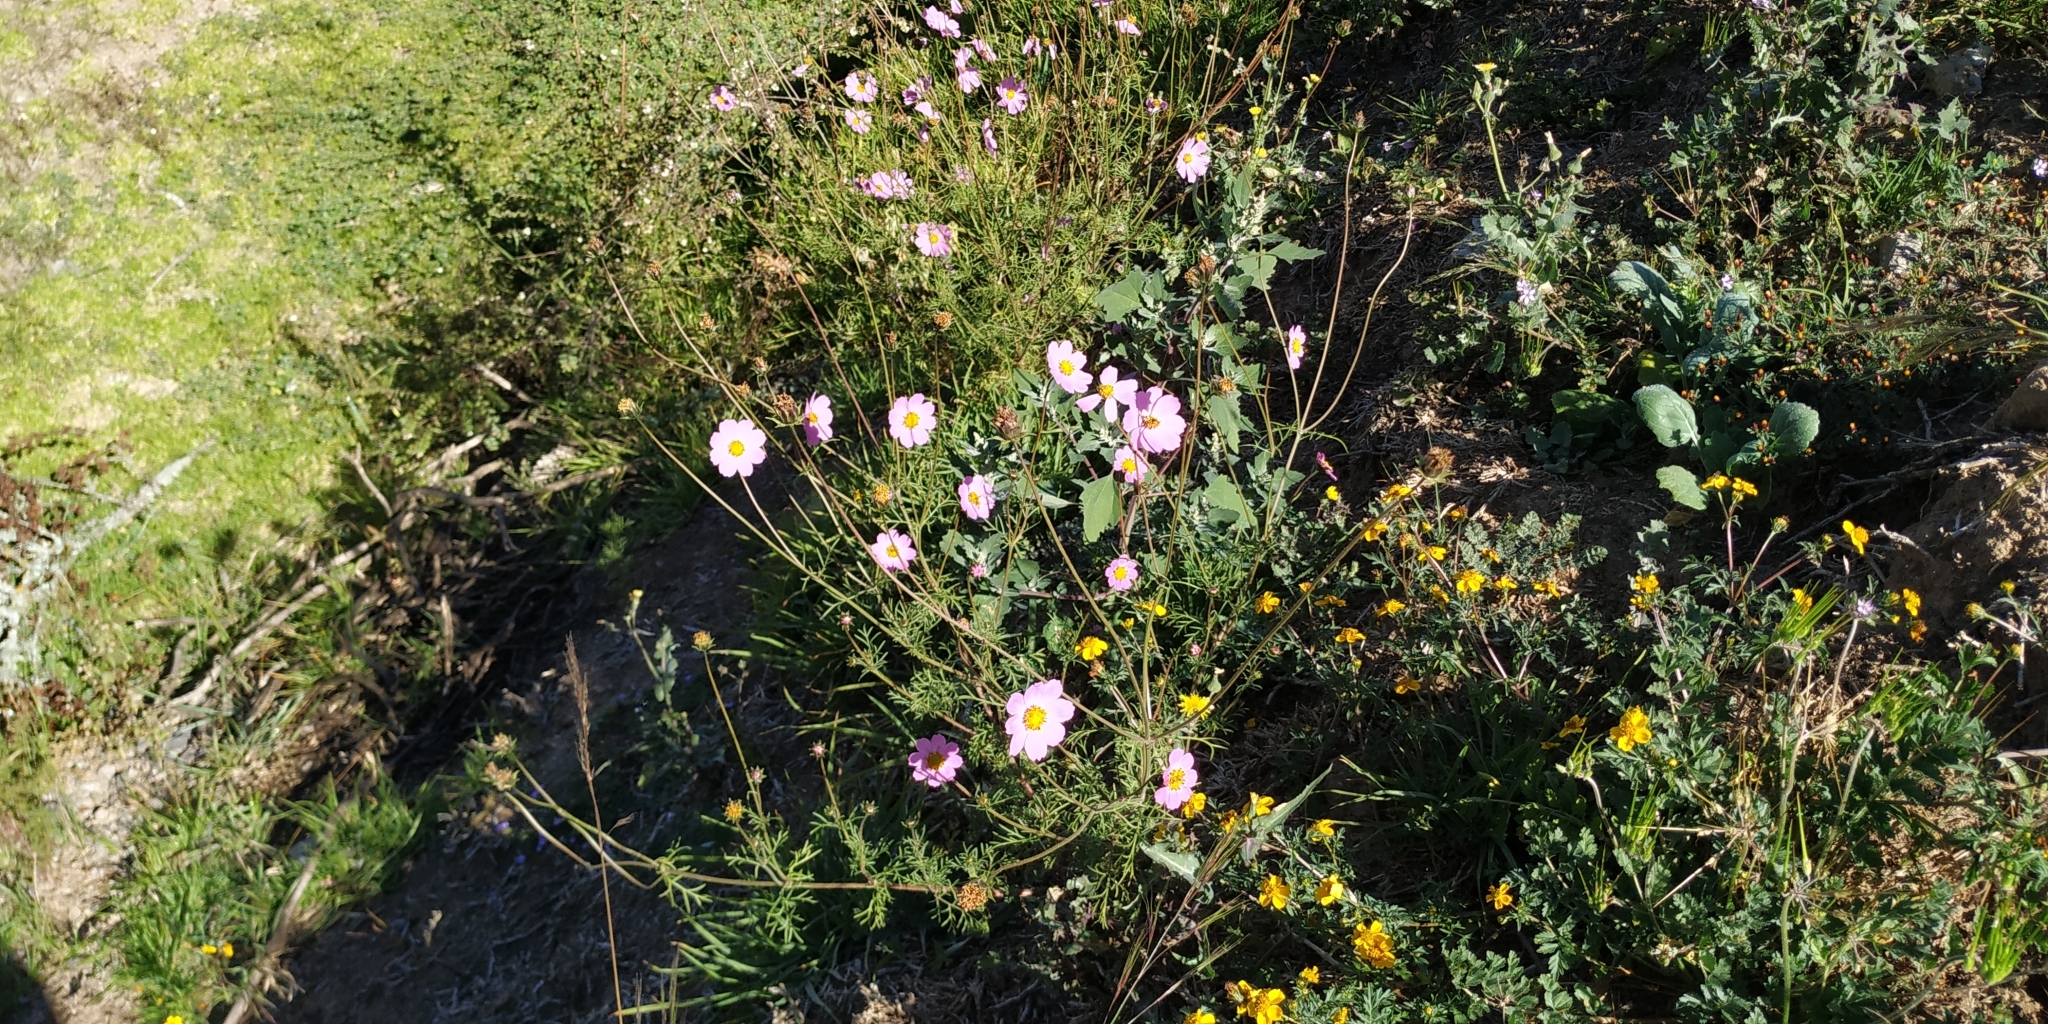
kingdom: Plantae
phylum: Tracheophyta
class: Magnoliopsida
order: Asterales
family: Asteraceae
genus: Cosmos
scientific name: Cosmos bipinnatus
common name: Garden cosmos
